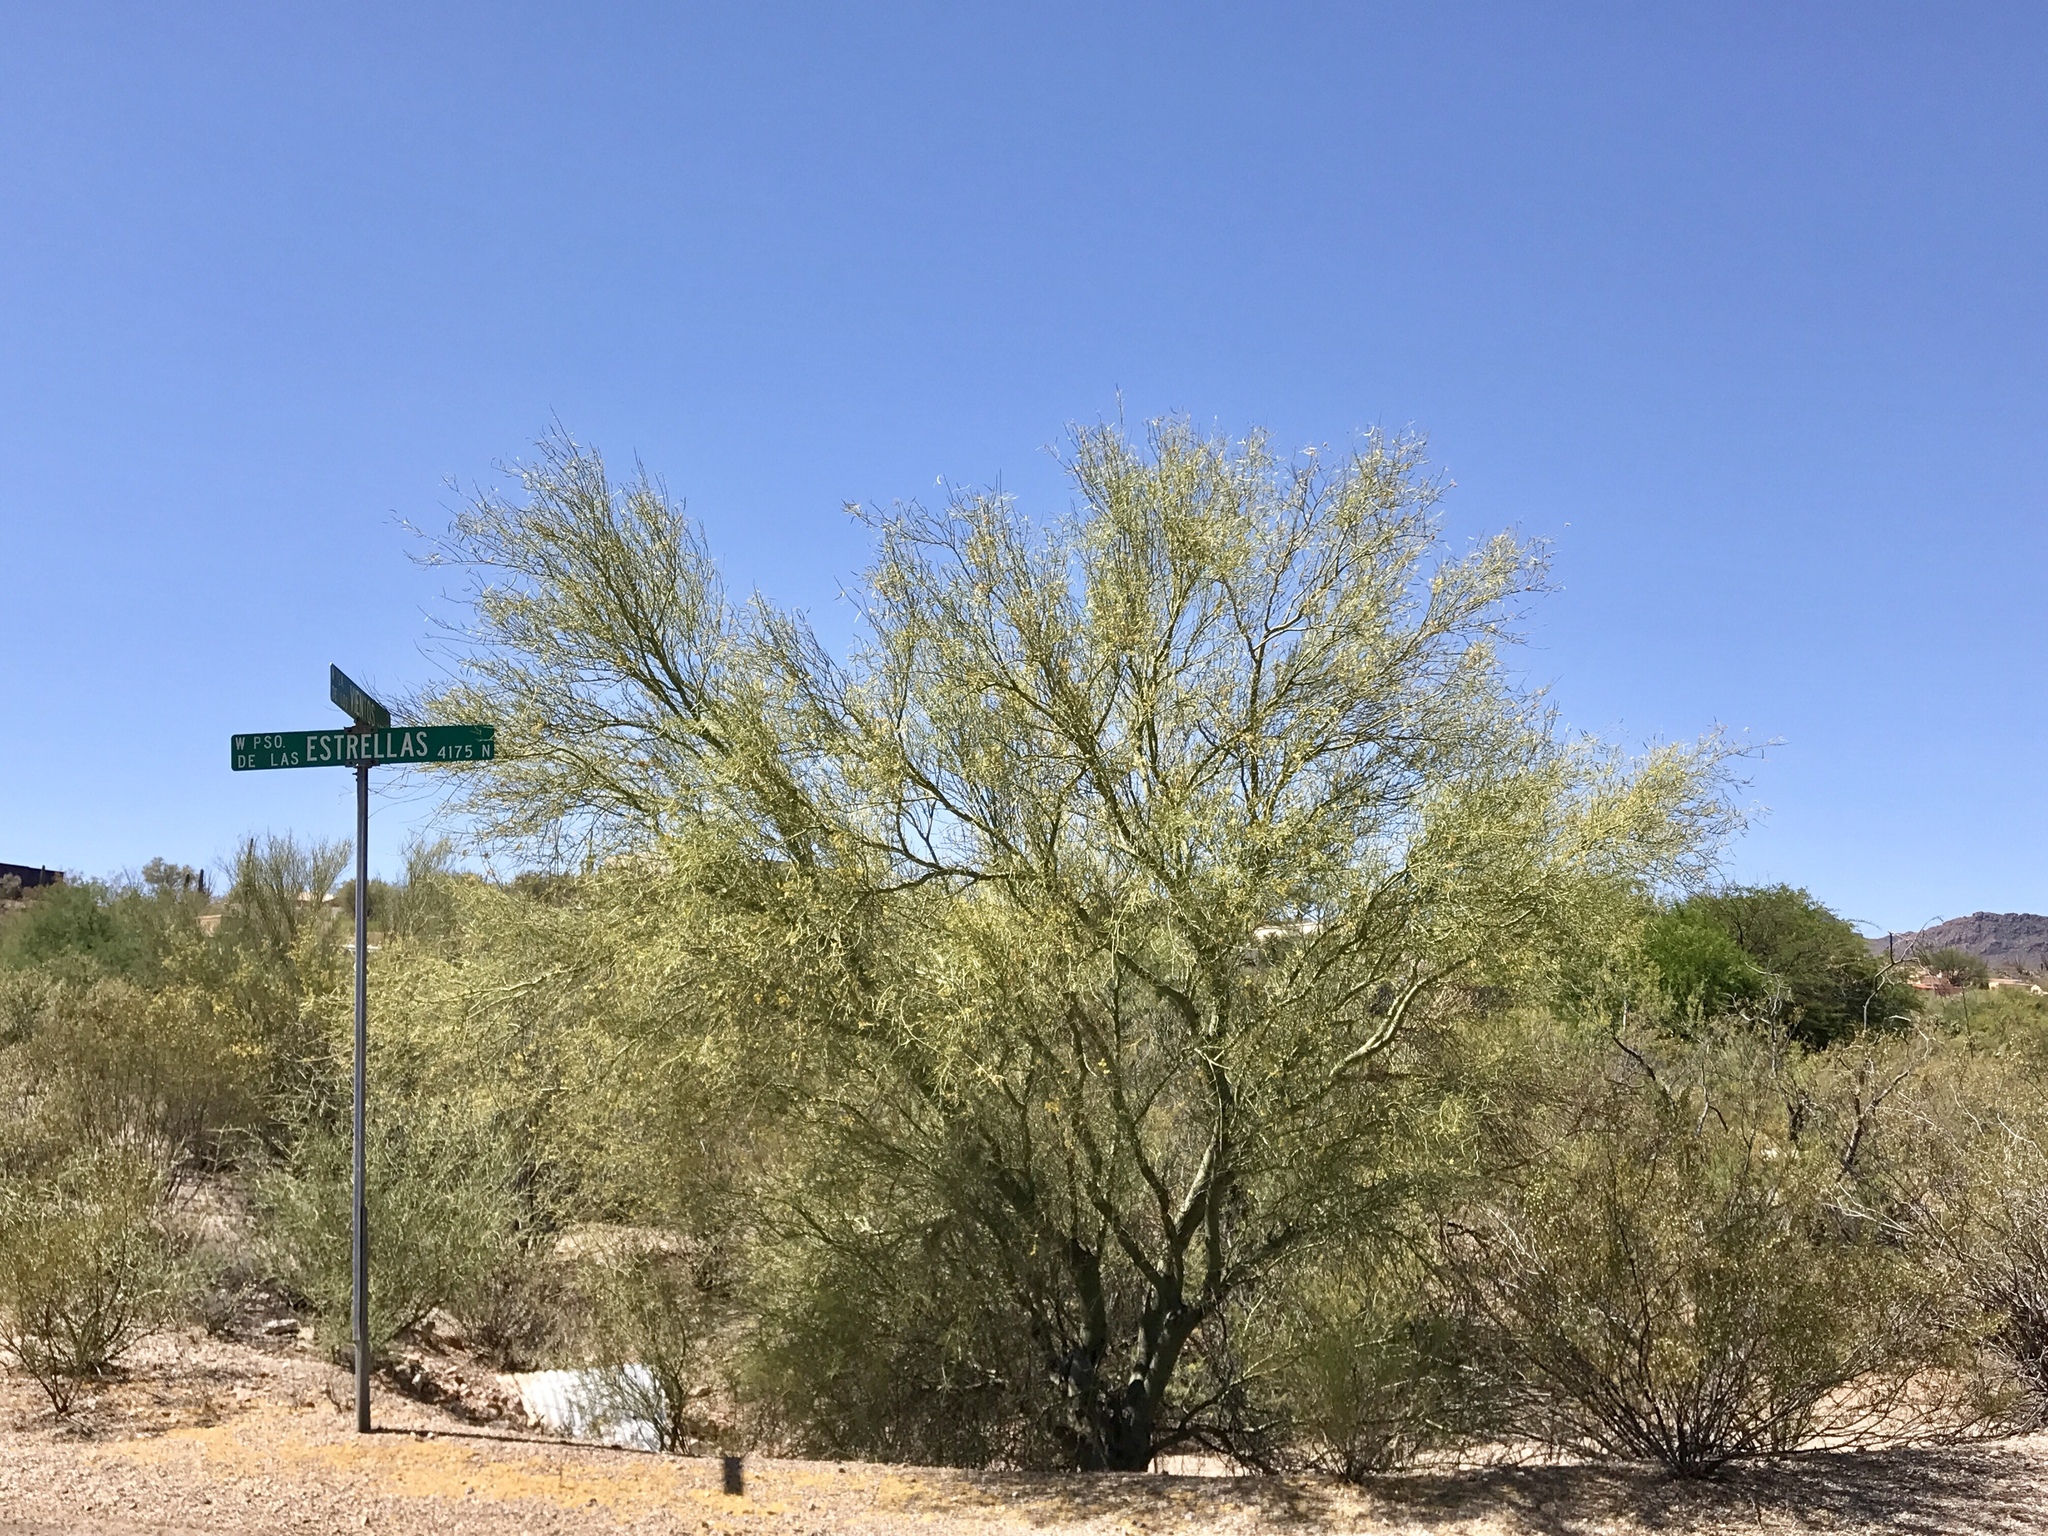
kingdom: Plantae
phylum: Tracheophyta
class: Magnoliopsida
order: Fabales
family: Fabaceae
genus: Parkinsonia
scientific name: Parkinsonia microphylla
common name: Yellow paloverde
